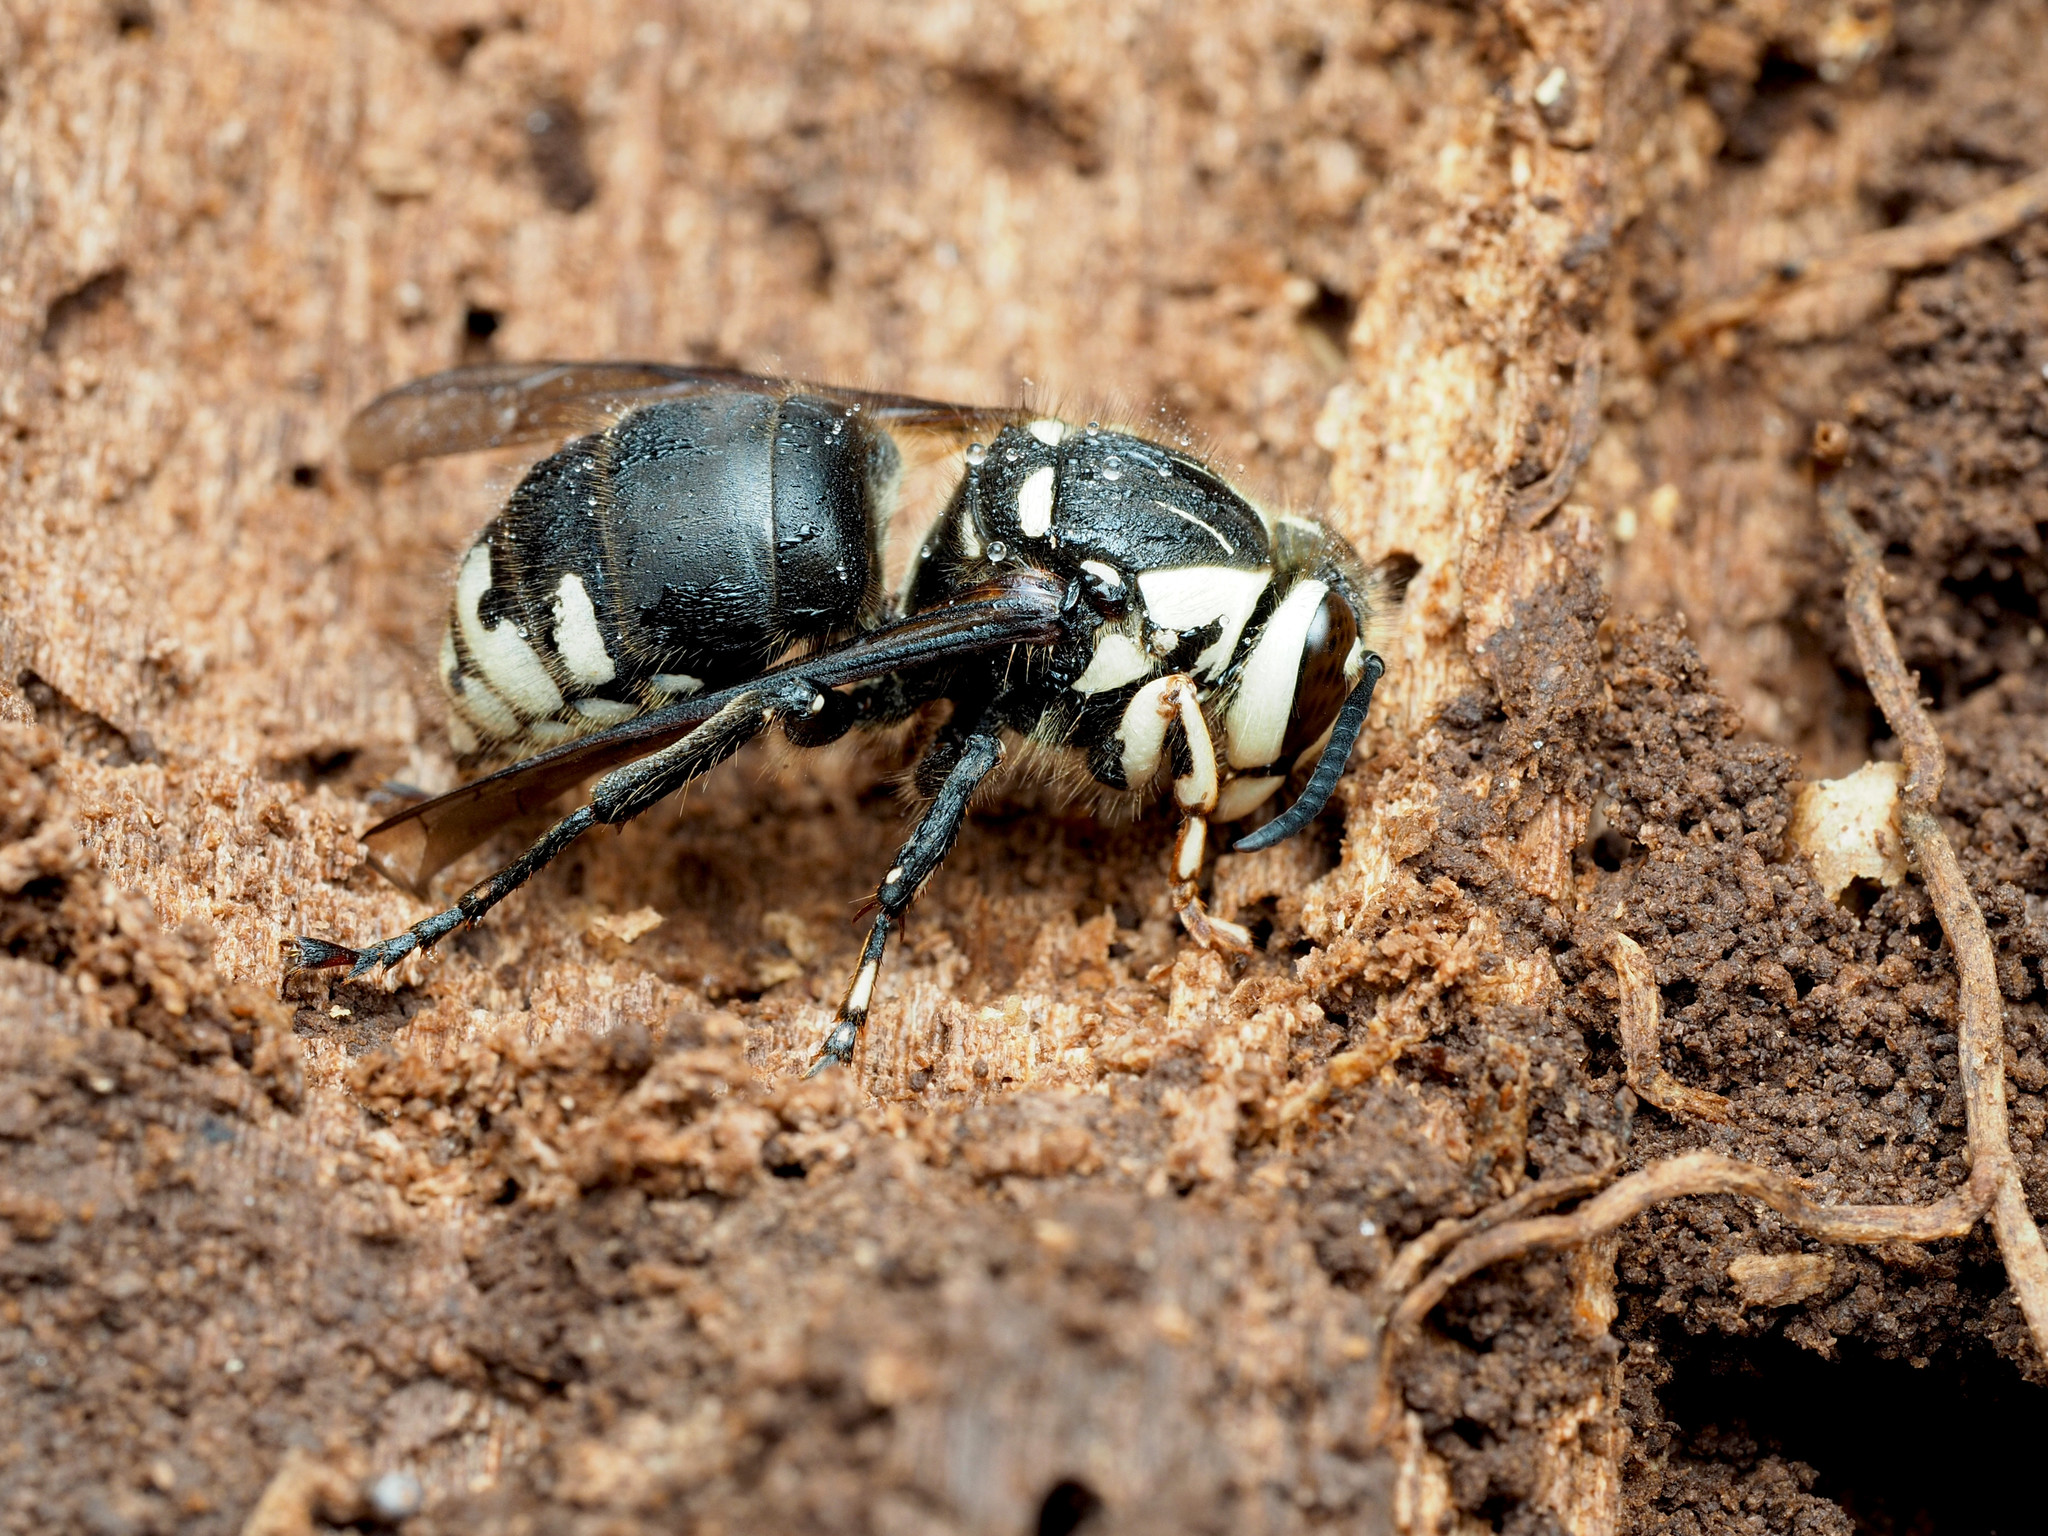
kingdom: Animalia
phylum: Arthropoda
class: Insecta
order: Hymenoptera
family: Vespidae
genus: Dolichovespula
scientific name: Dolichovespula maculata
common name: Bald-faced hornet
